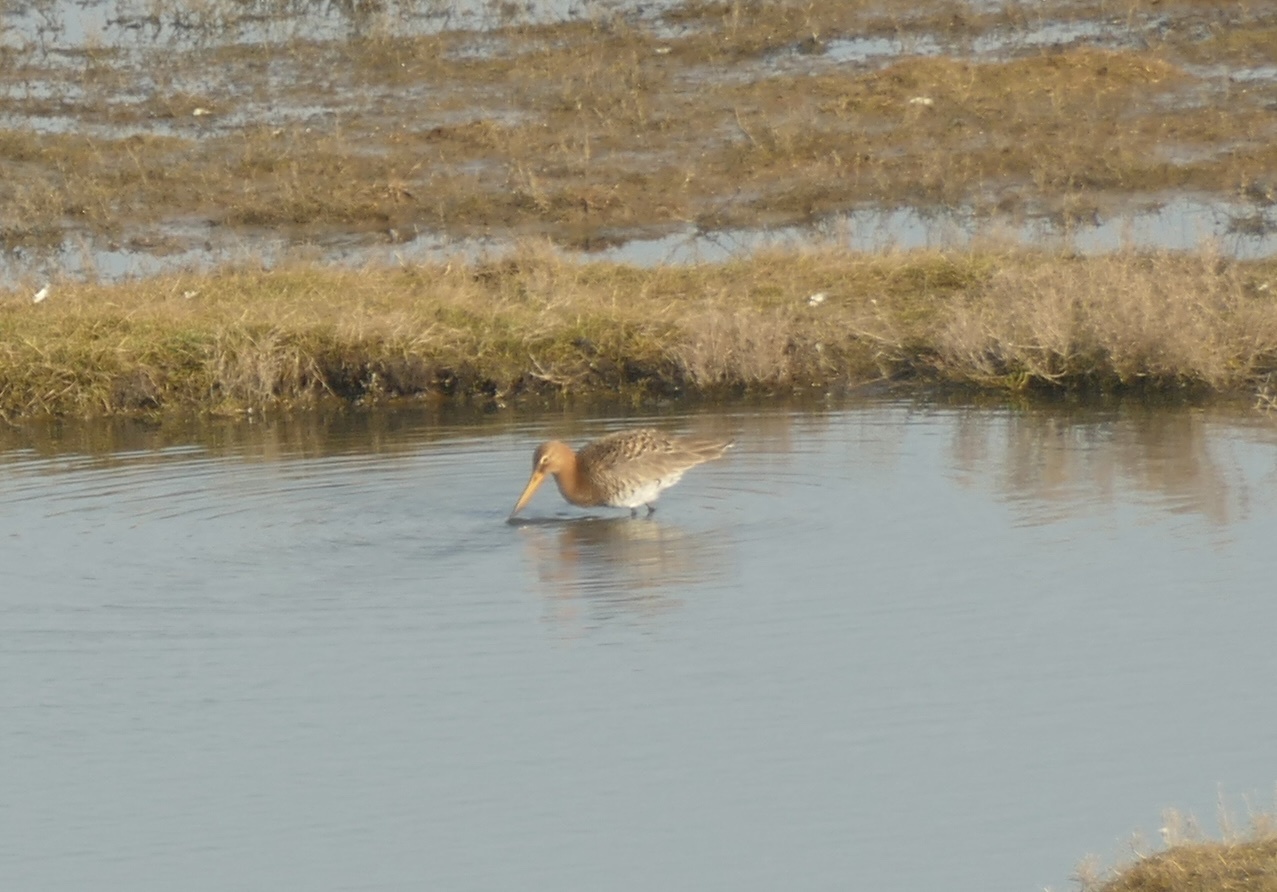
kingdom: Animalia
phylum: Chordata
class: Aves
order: Charadriiformes
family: Scolopacidae
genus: Limosa
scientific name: Limosa limosa
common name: Black-tailed godwit
